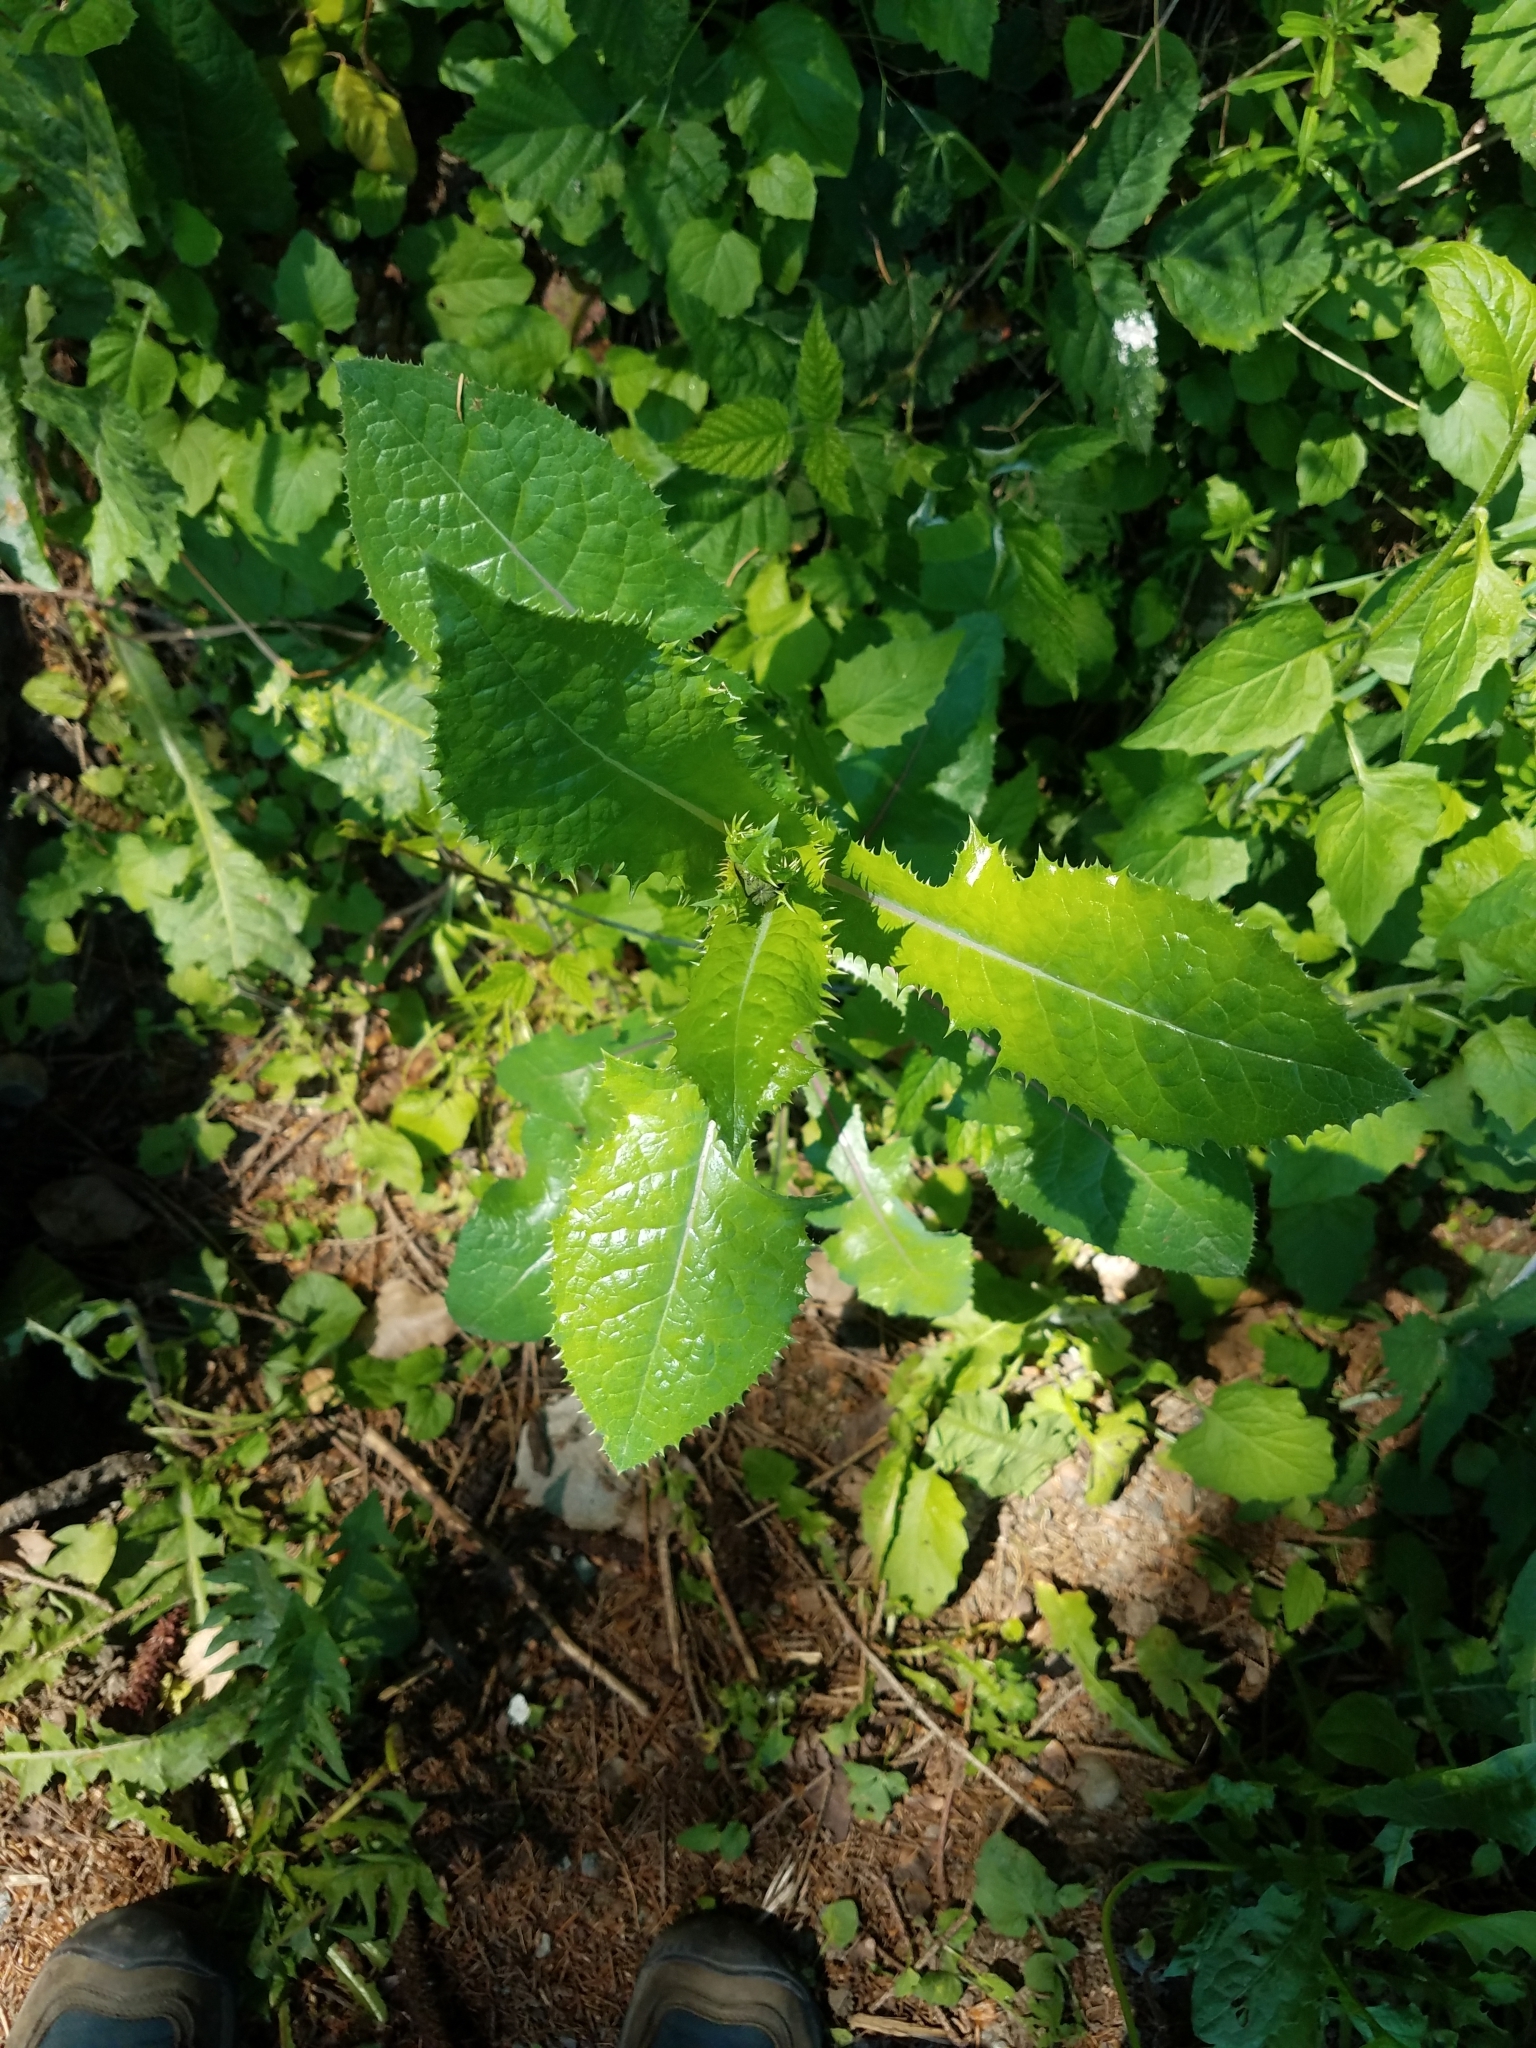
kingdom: Plantae
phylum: Tracheophyta
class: Magnoliopsida
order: Asterales
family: Asteraceae
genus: Sonchus
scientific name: Sonchus asper
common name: Prickly sow-thistle
